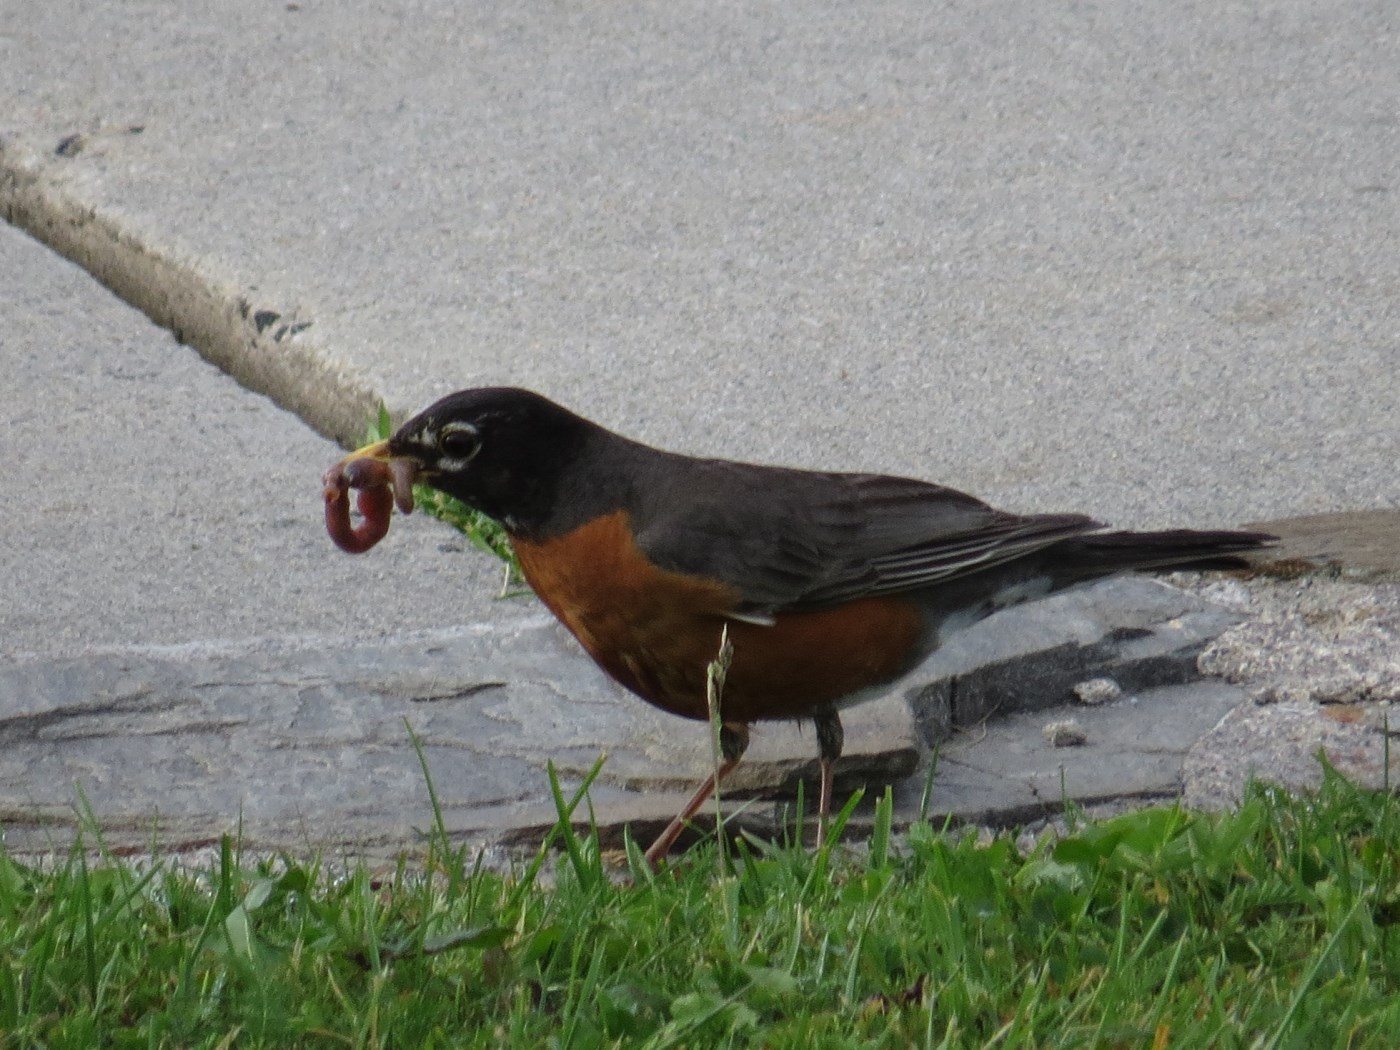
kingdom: Animalia
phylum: Chordata
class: Aves
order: Passeriformes
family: Turdidae
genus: Turdus
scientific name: Turdus migratorius
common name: American robin
